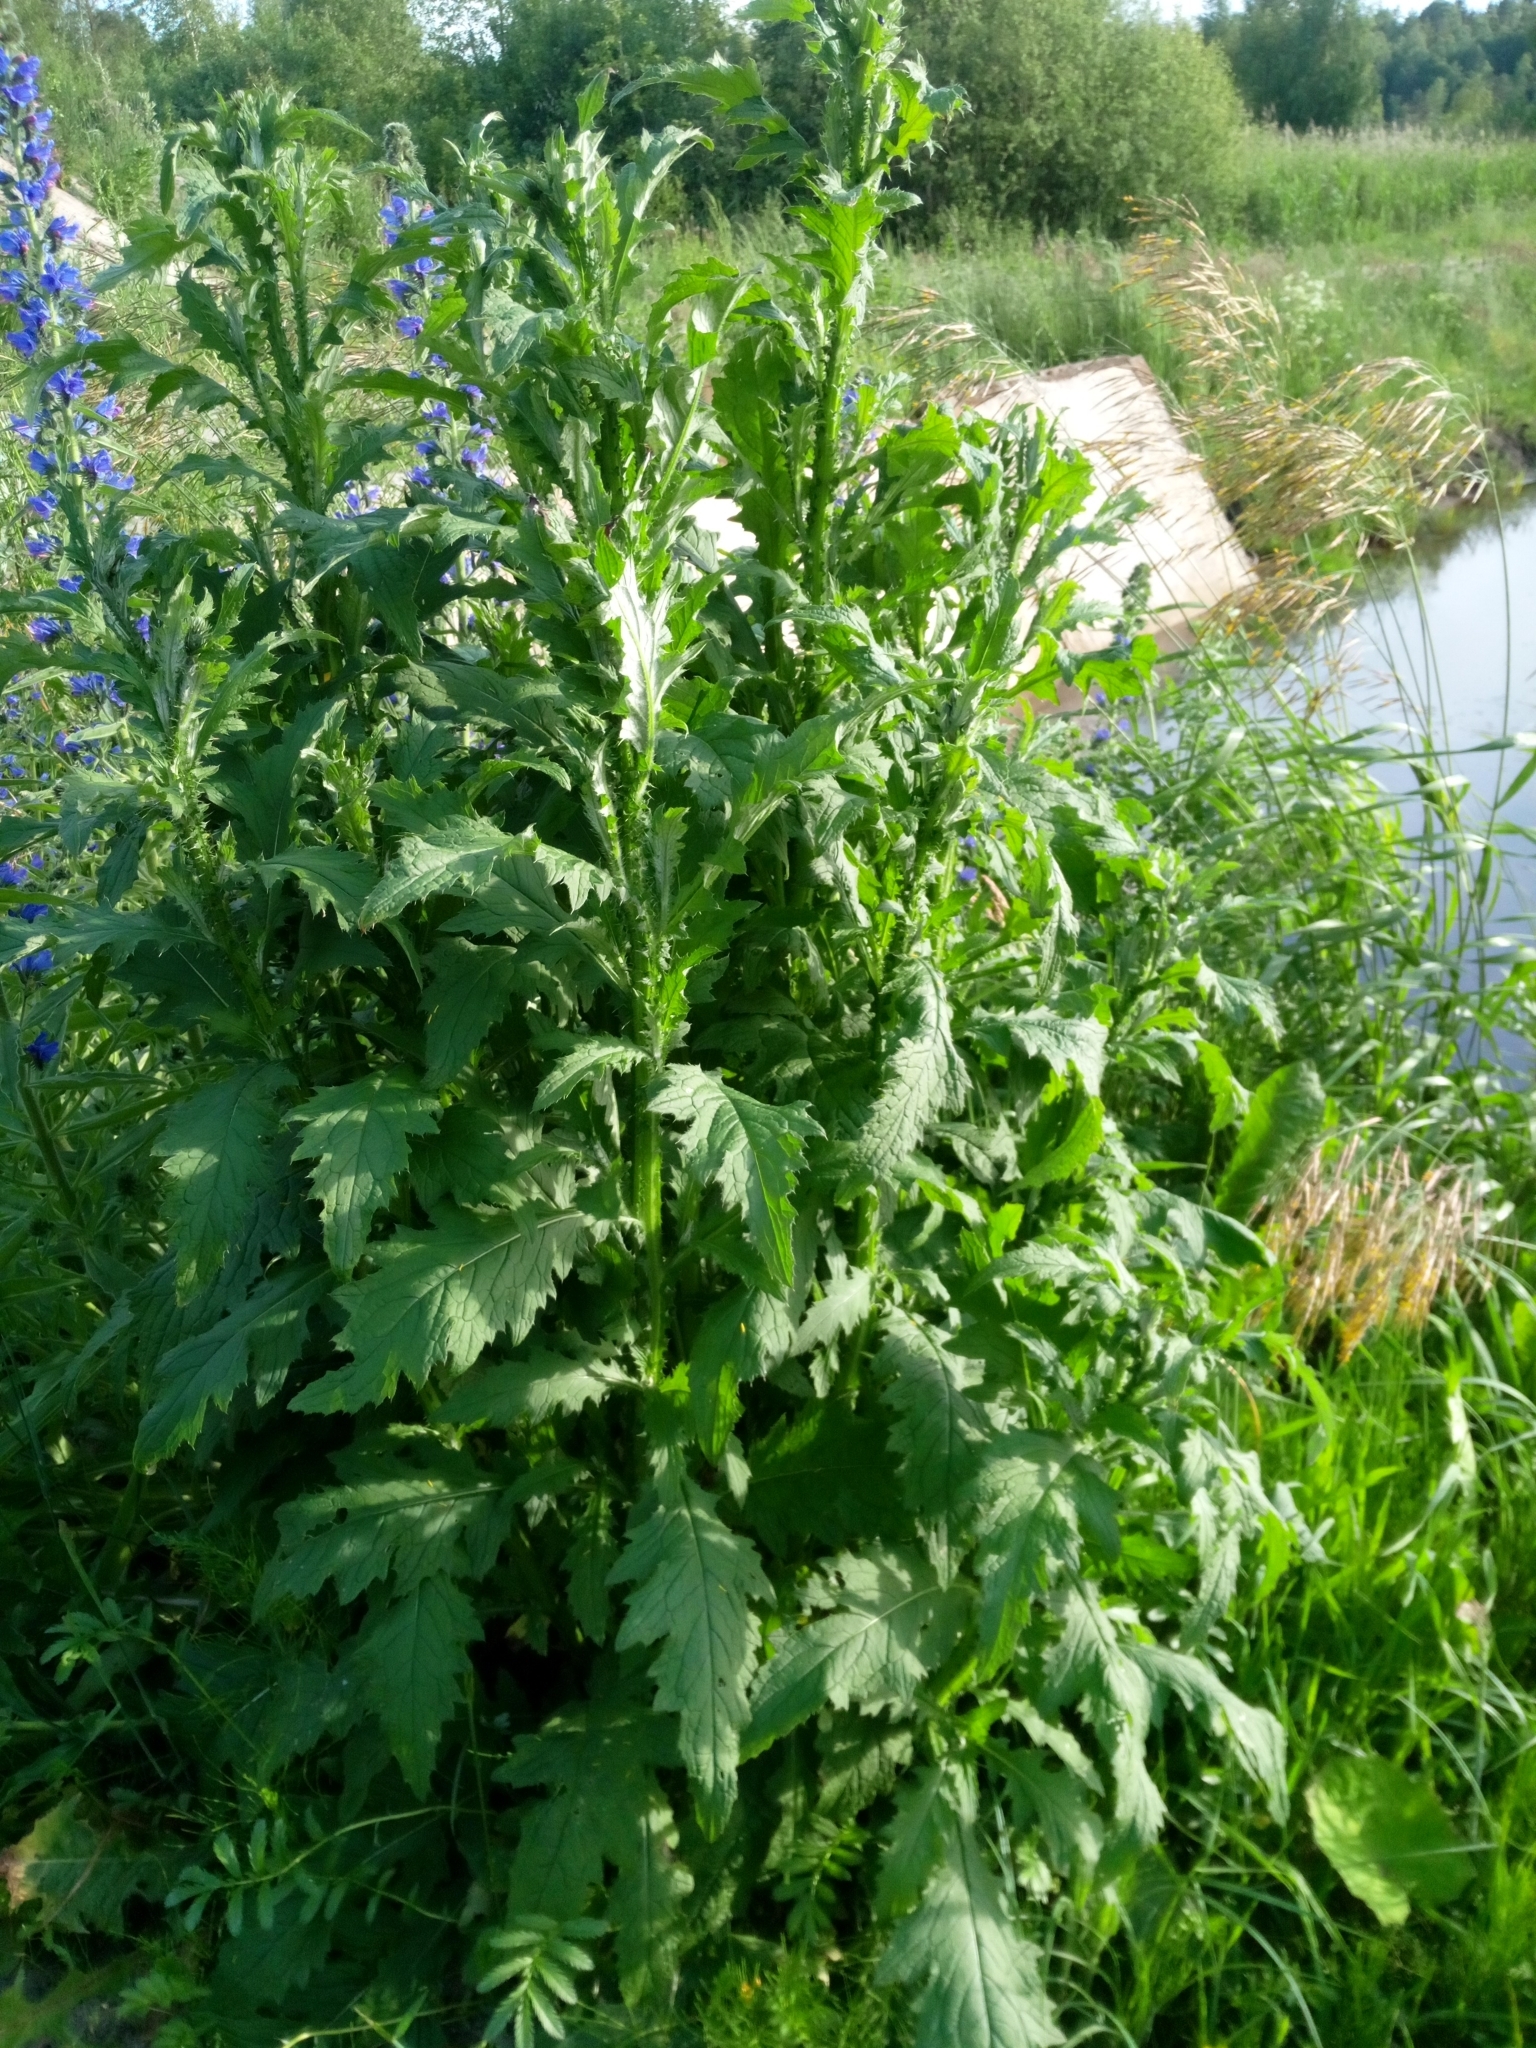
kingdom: Plantae
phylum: Tracheophyta
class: Magnoliopsida
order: Asterales
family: Asteraceae
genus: Carduus
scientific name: Carduus crispus
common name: Welted thistle
